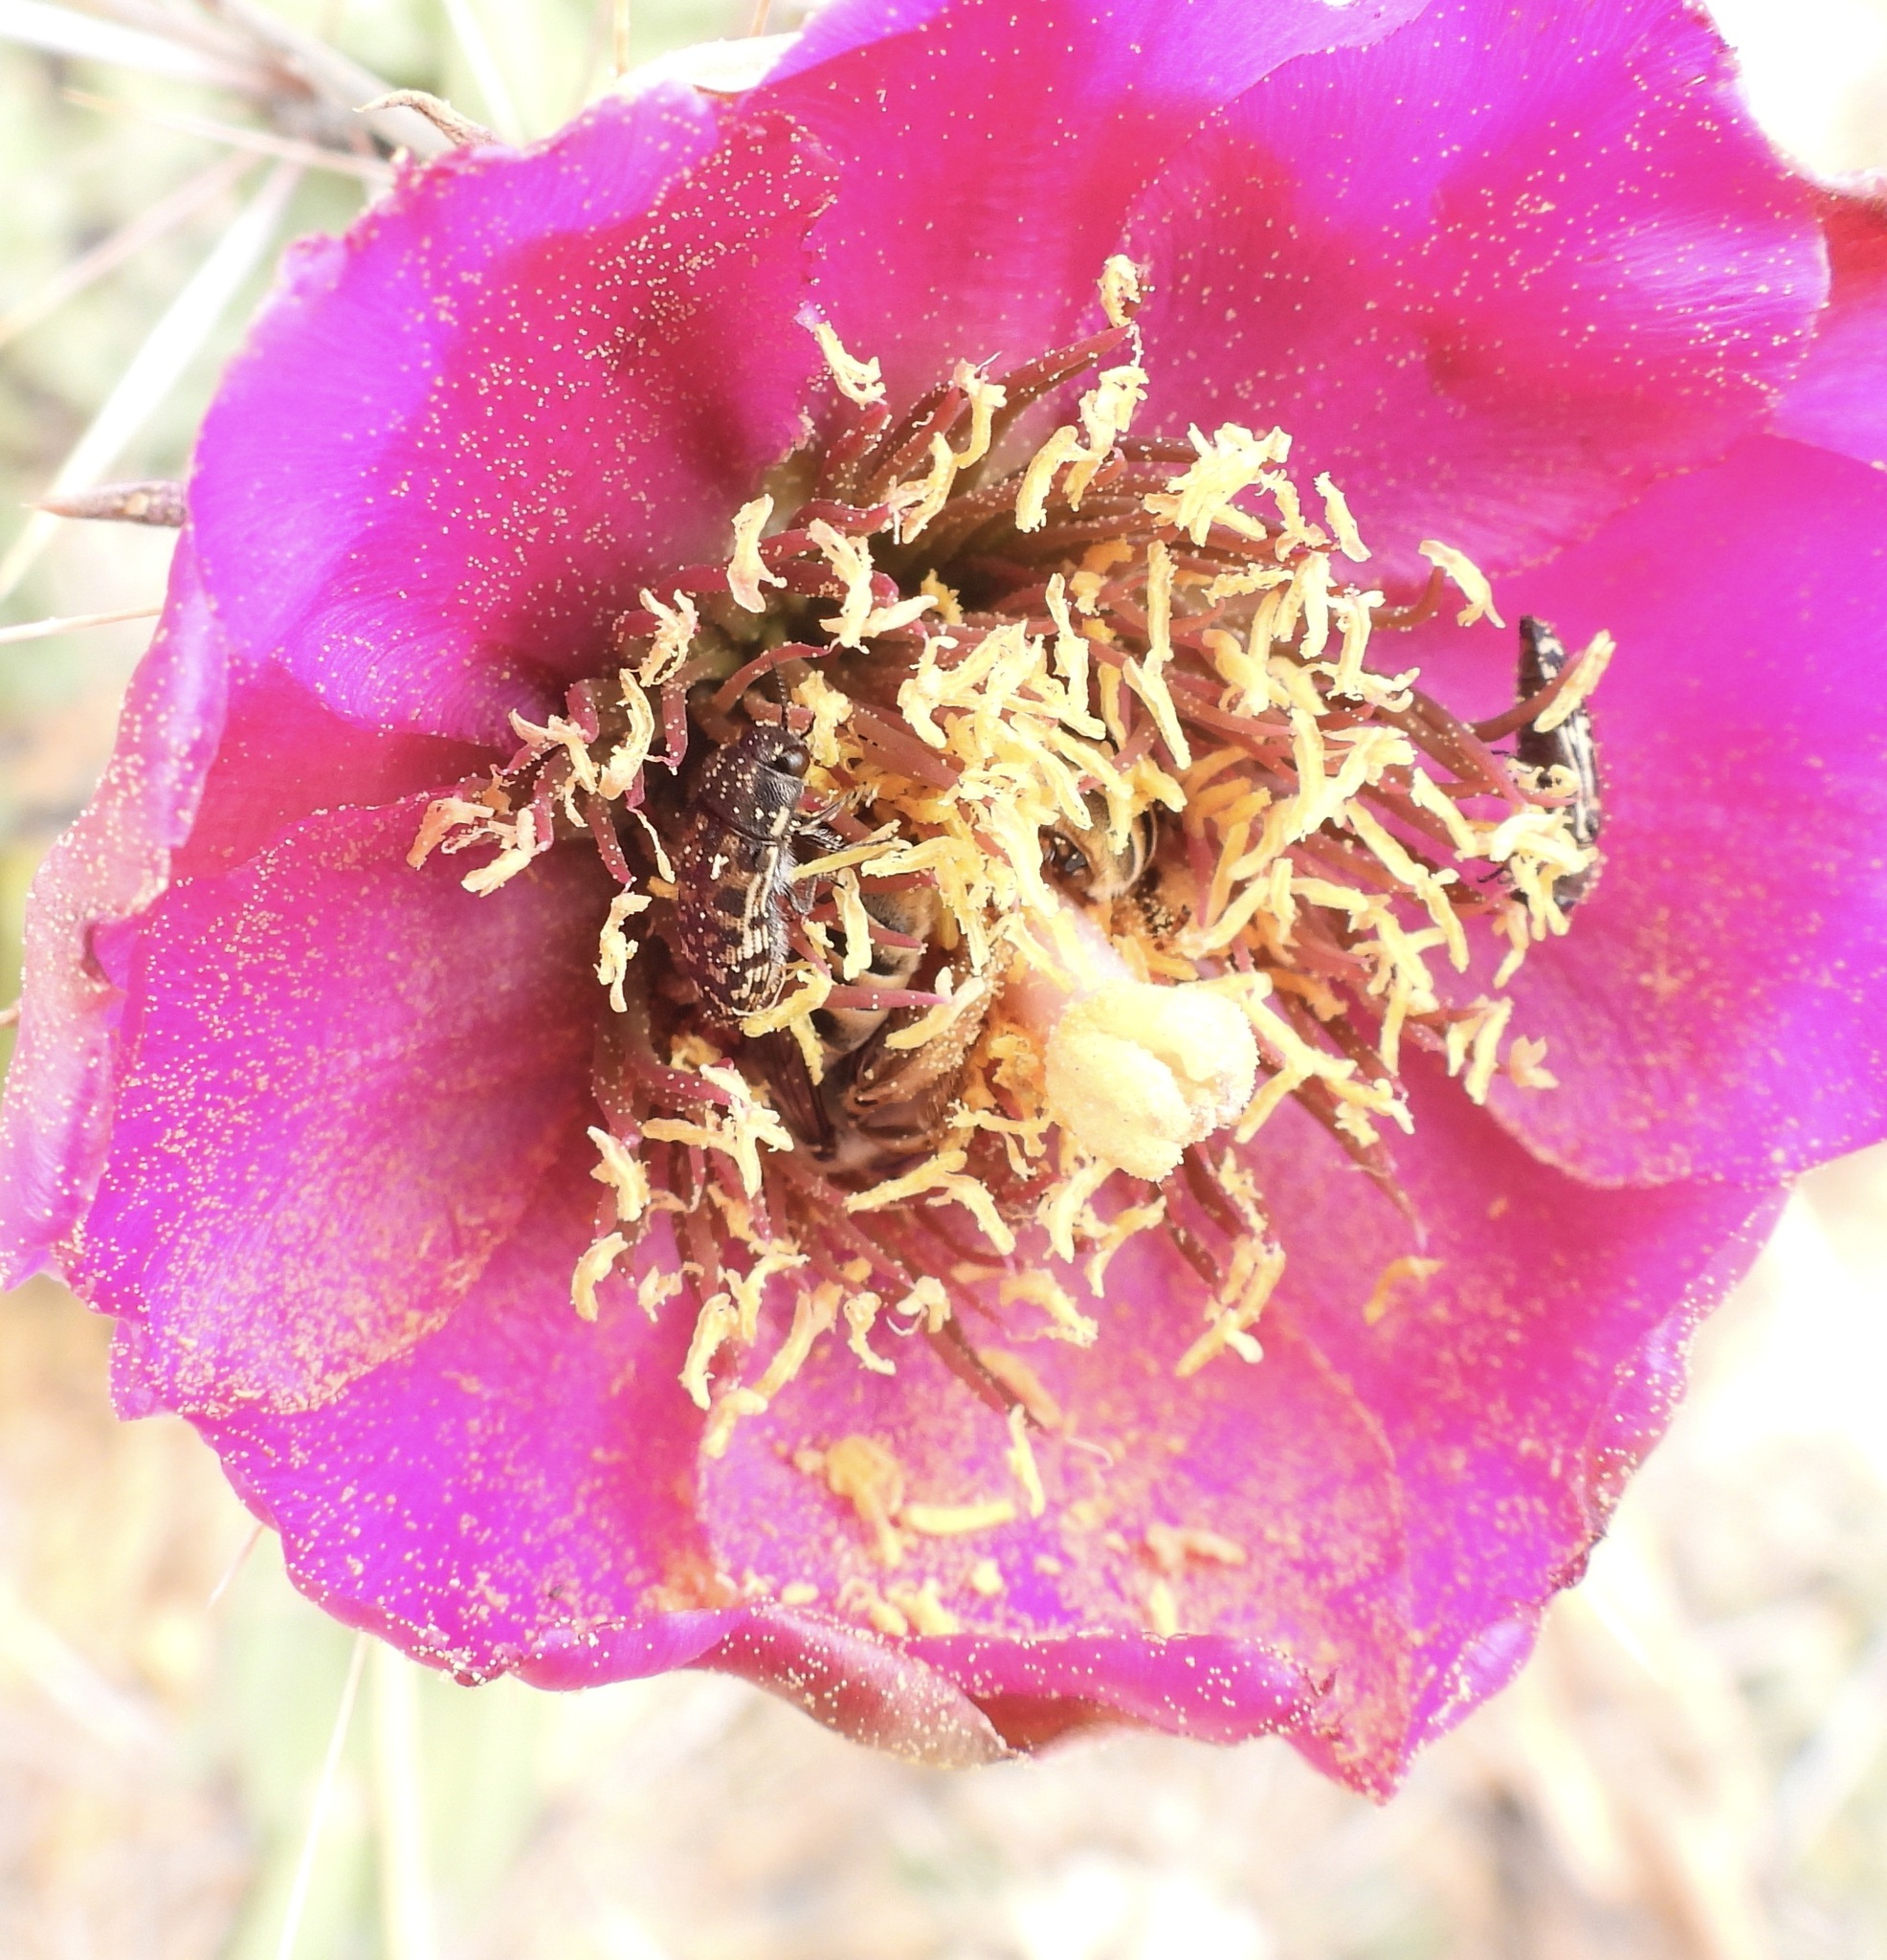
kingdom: Animalia
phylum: Arthropoda
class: Insecta
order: Coleoptera
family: Buprestidae
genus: Acmaeodera
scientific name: Acmaeodera mixta
